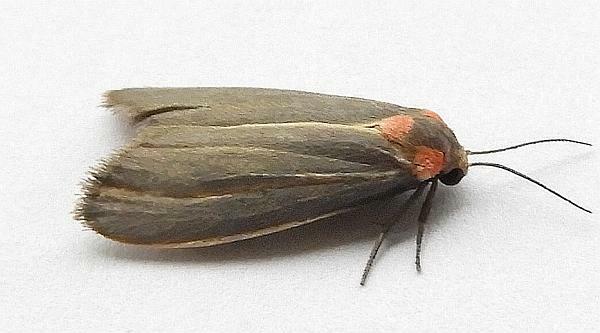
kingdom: Animalia
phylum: Arthropoda
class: Insecta
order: Lepidoptera
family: Erebidae
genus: Haematomis
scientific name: Haematomis uniformis
